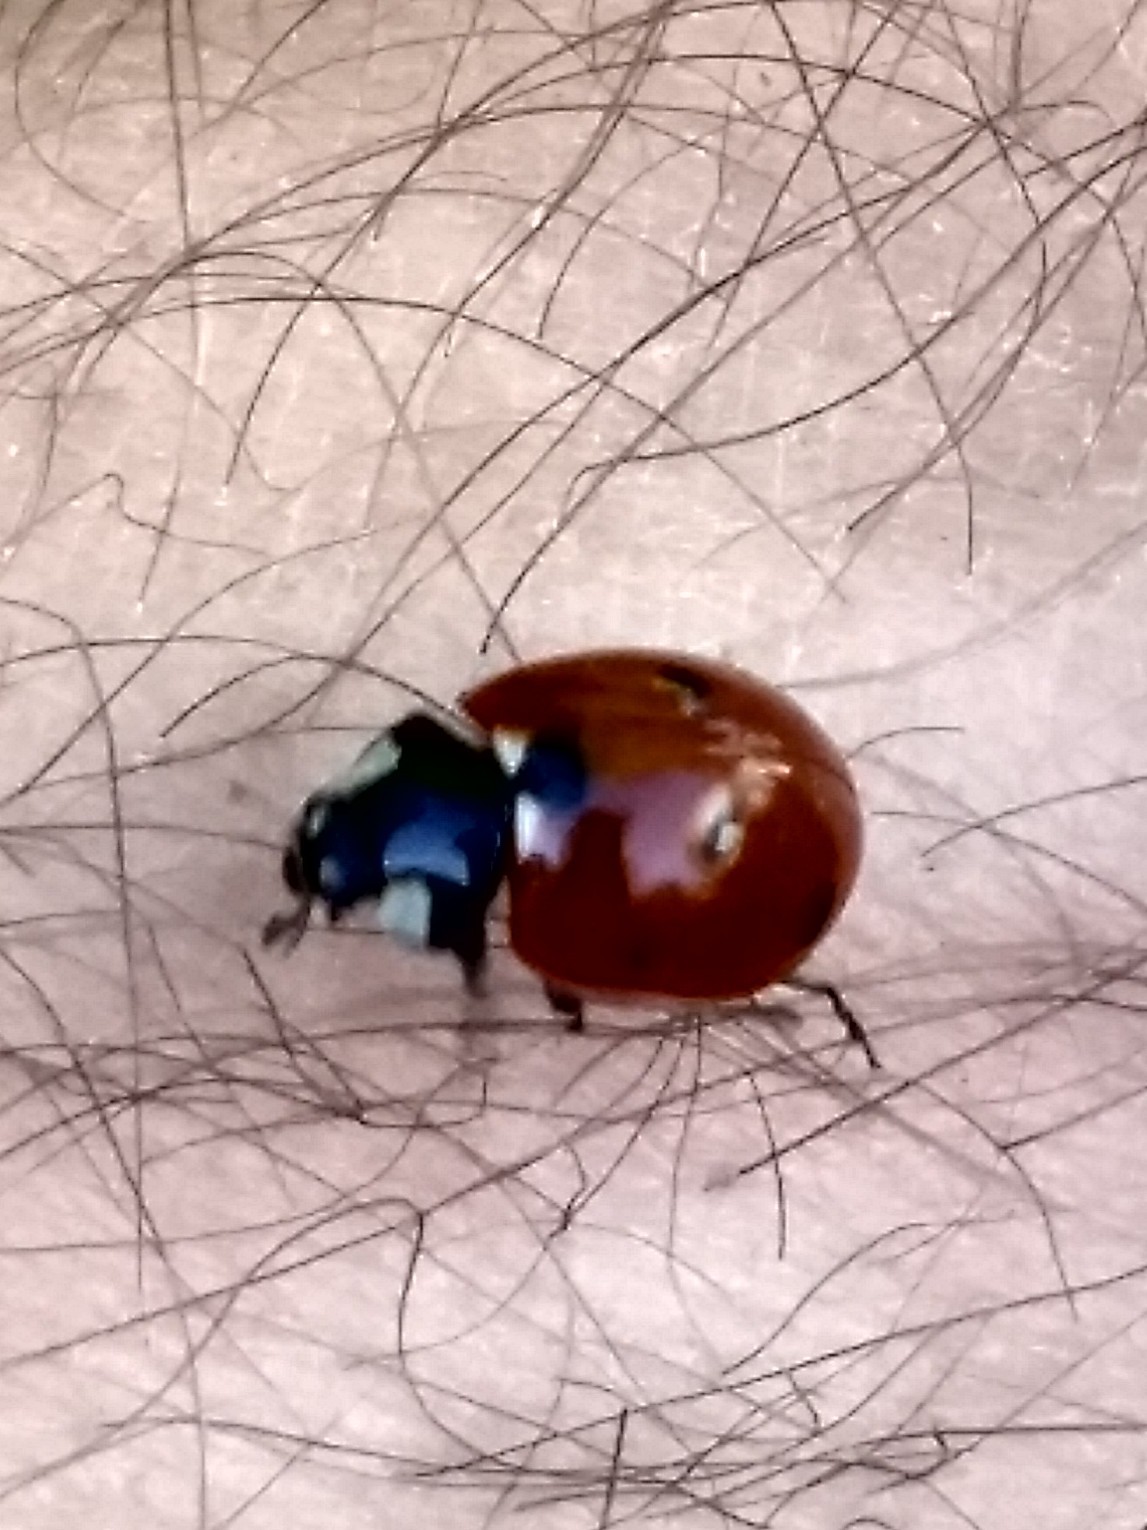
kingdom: Animalia
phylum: Arthropoda
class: Insecta
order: Coleoptera
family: Coccinellidae
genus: Coccinella
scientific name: Coccinella septempunctata
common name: Sevenspotted lady beetle
